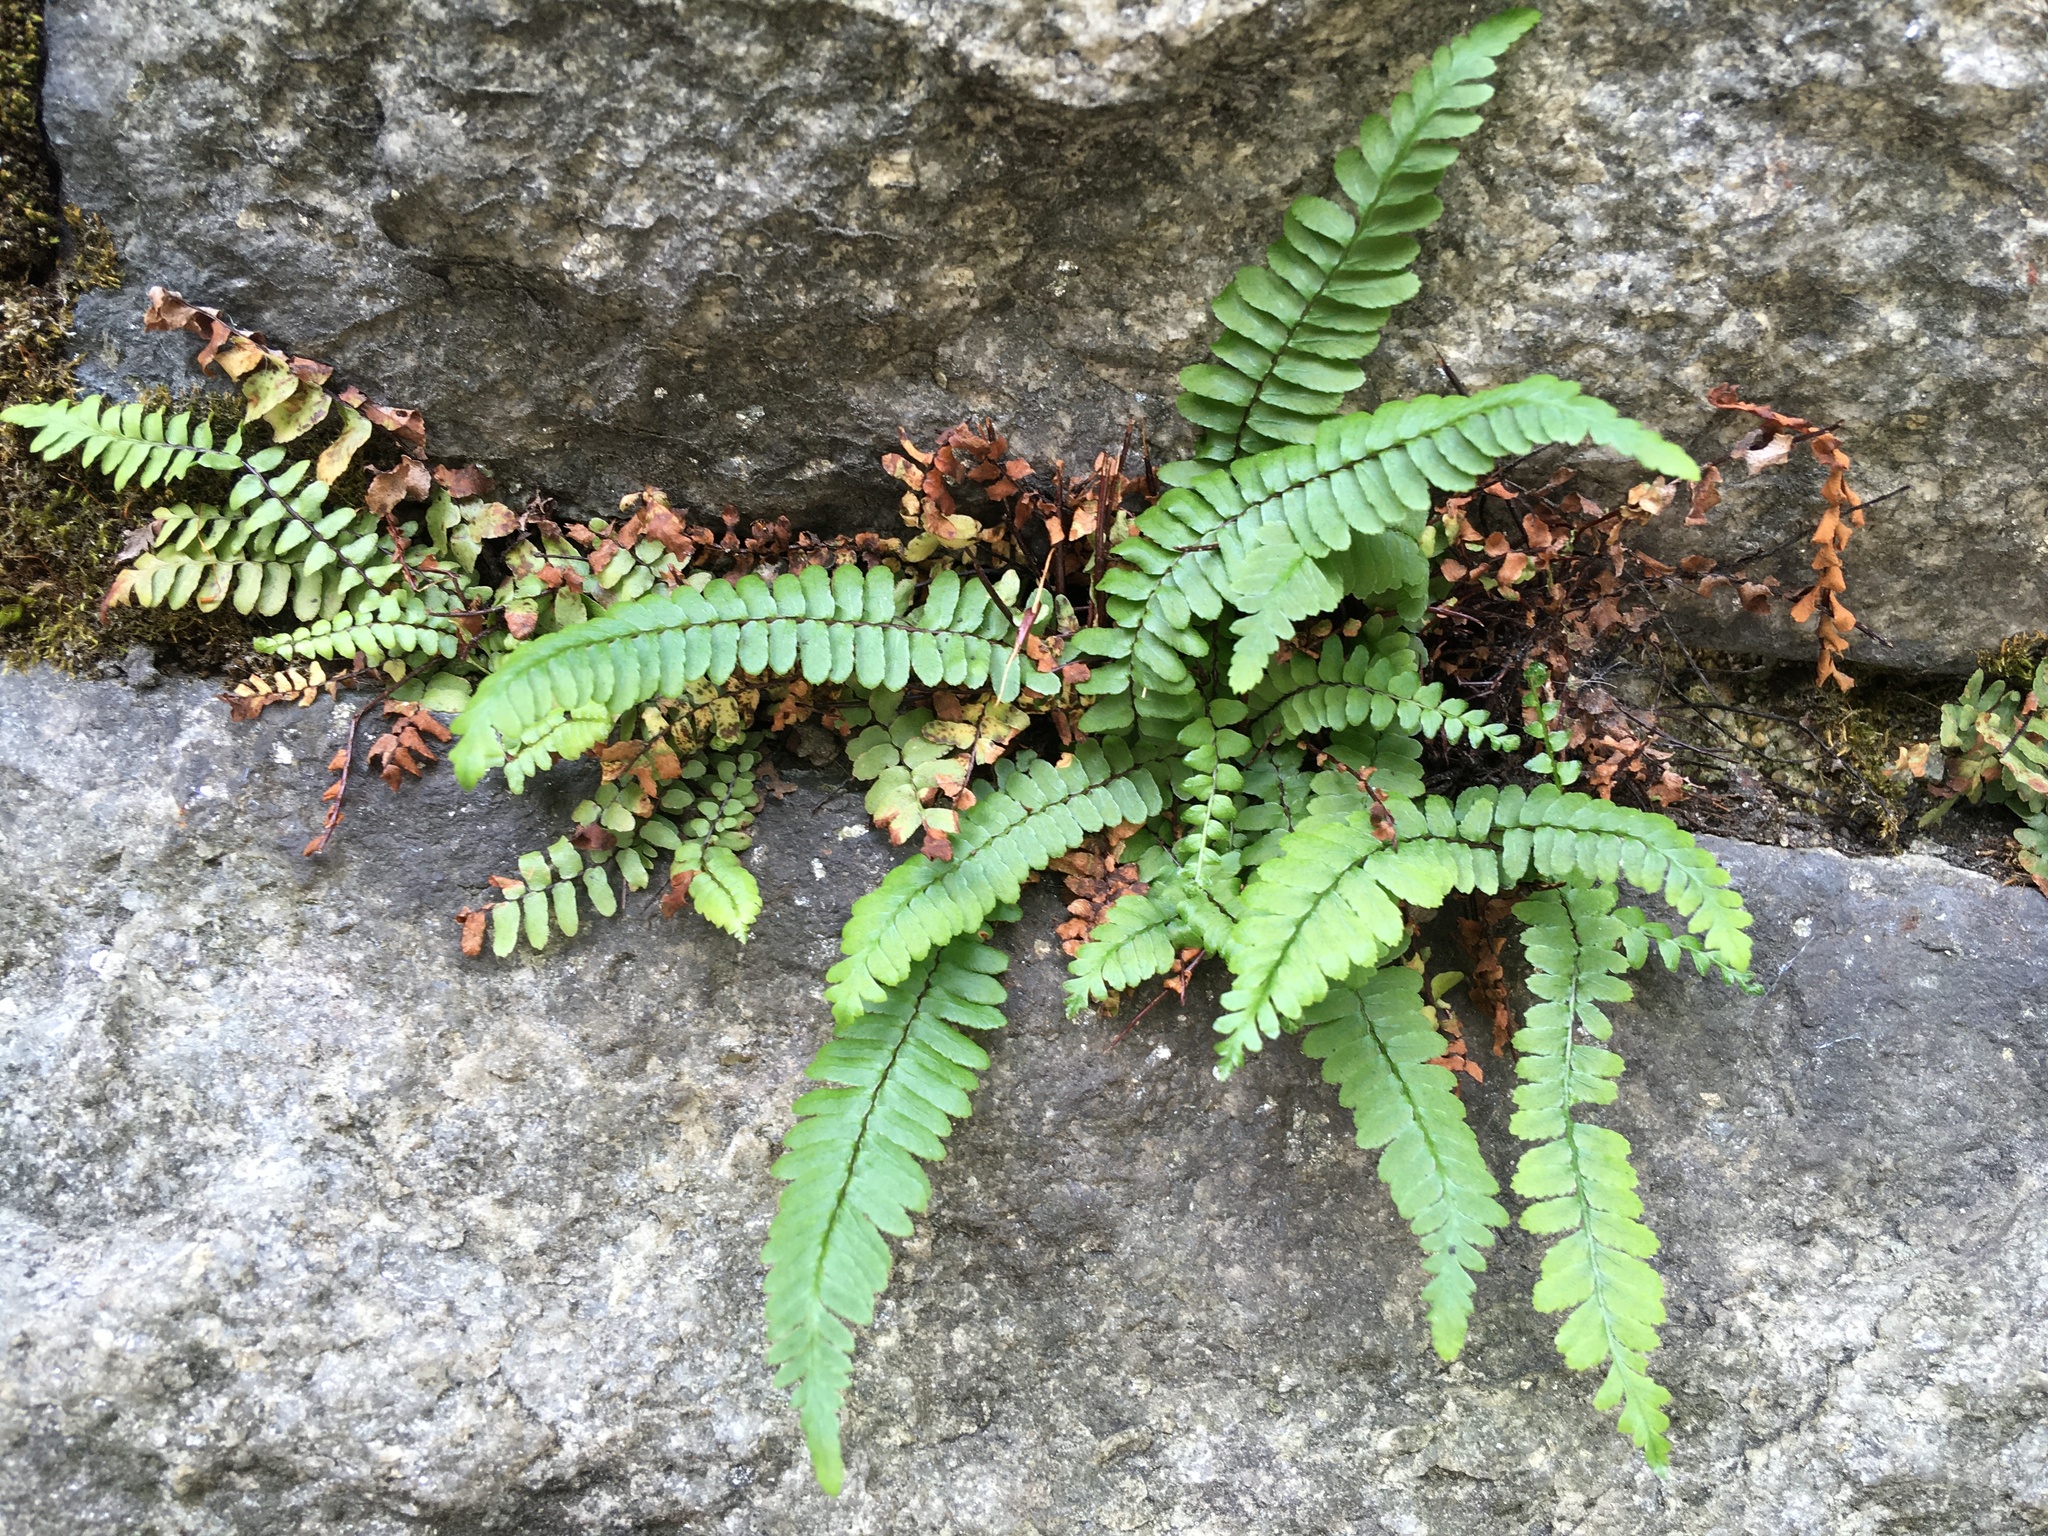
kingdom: Plantae
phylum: Tracheophyta
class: Polypodiopsida
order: Polypodiales
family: Aspleniaceae
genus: Asplenium
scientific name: Asplenium platyneuron
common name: Ebony spleenwort
